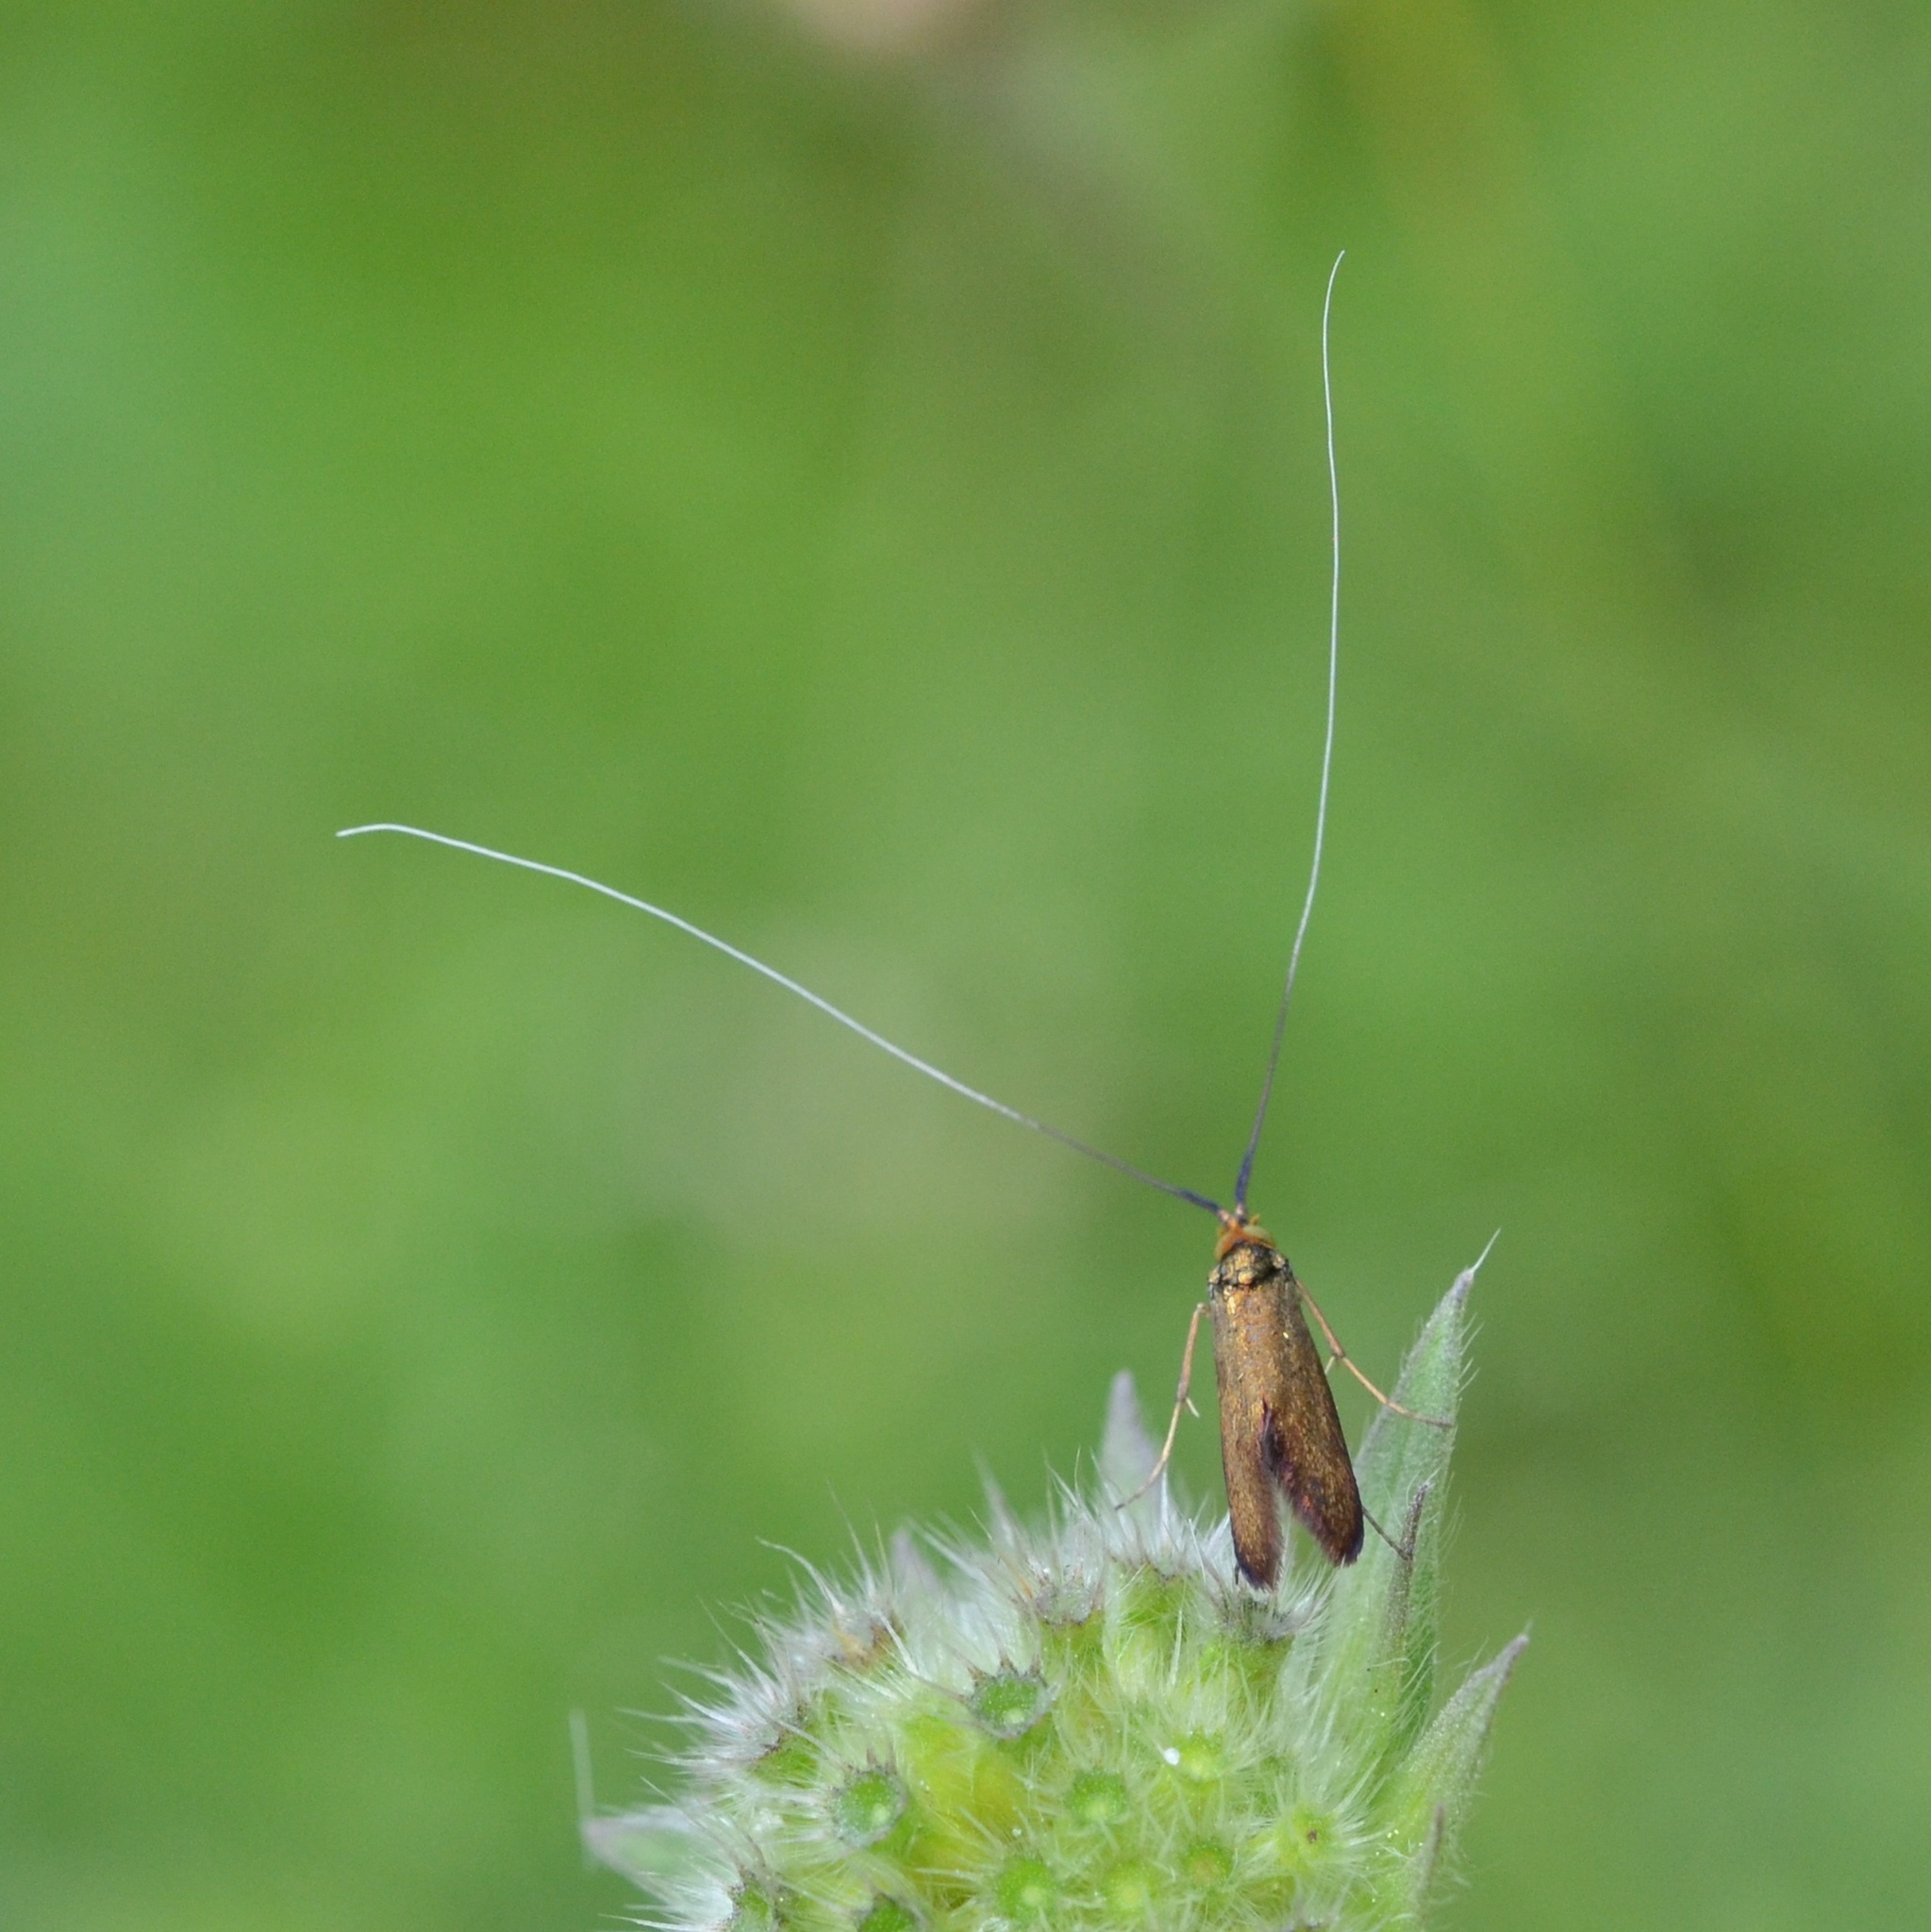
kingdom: Animalia
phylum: Arthropoda
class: Insecta
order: Lepidoptera
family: Adelidae
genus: Nemophora
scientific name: Nemophora metallica
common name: Brassy long-horn
